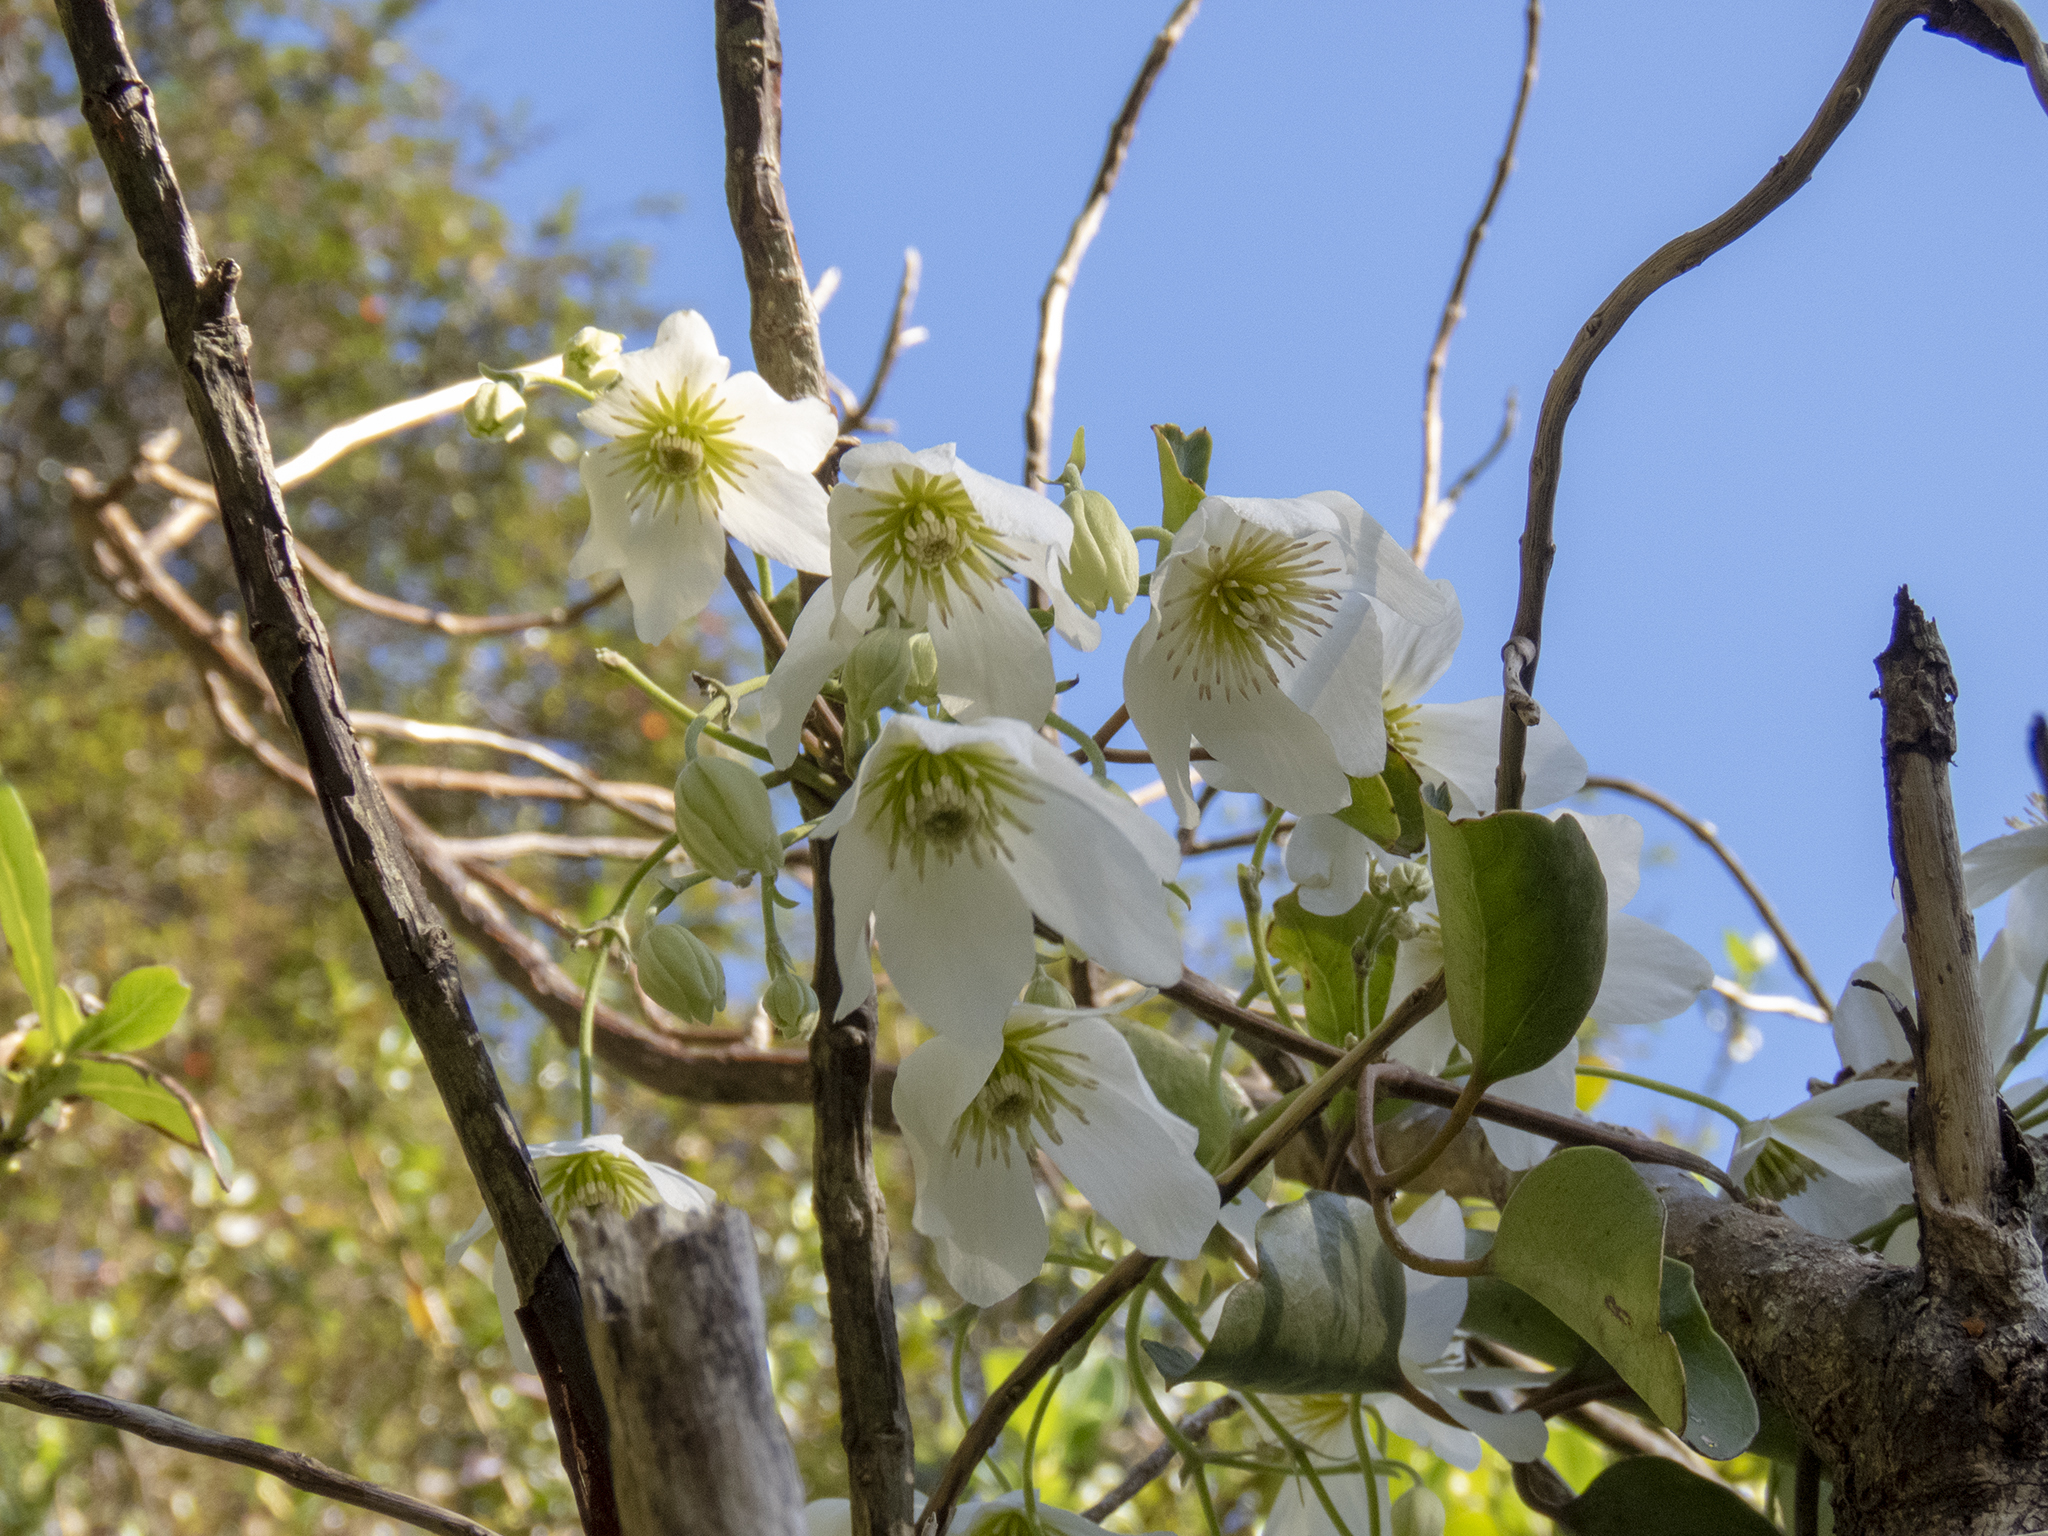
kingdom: Plantae
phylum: Tracheophyta
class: Magnoliopsida
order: Ranunculales
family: Ranunculaceae
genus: Clematis
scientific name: Clematis paniculata
